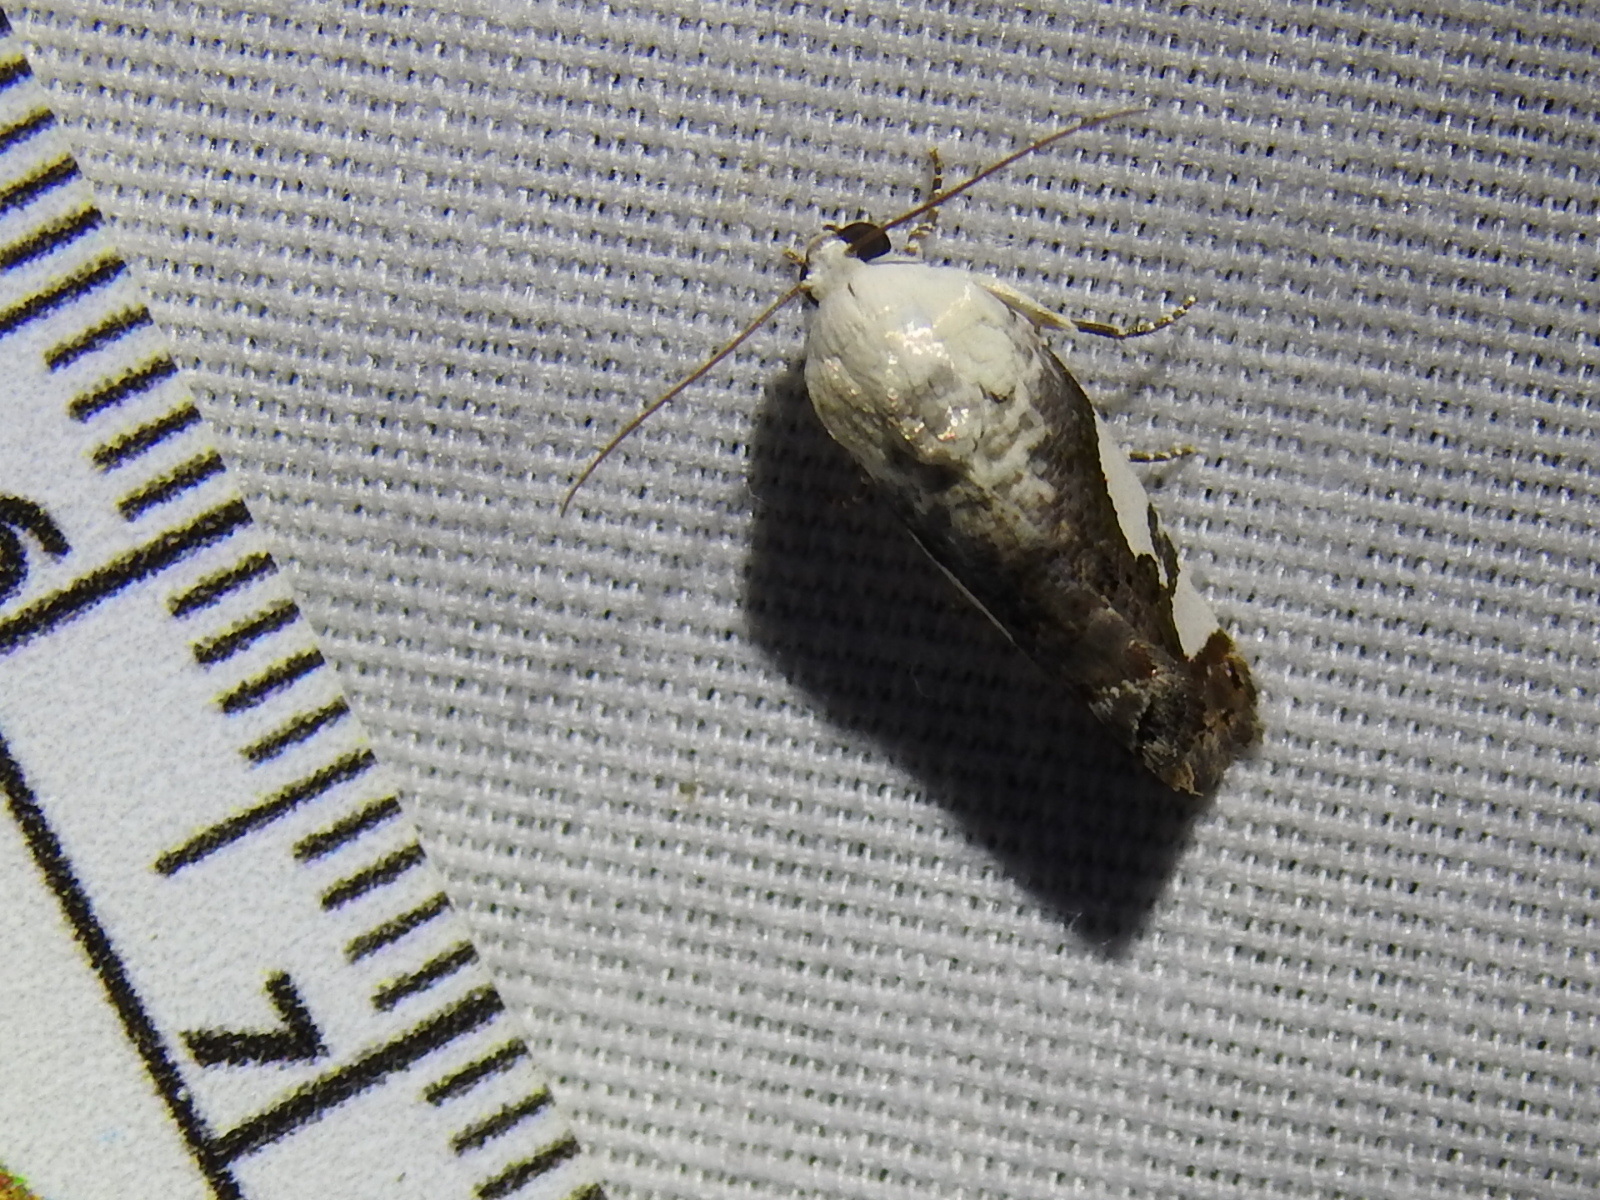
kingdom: Animalia
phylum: Arthropoda
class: Insecta
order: Lepidoptera
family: Noctuidae
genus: Acontia
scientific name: Acontia quadriplaga
